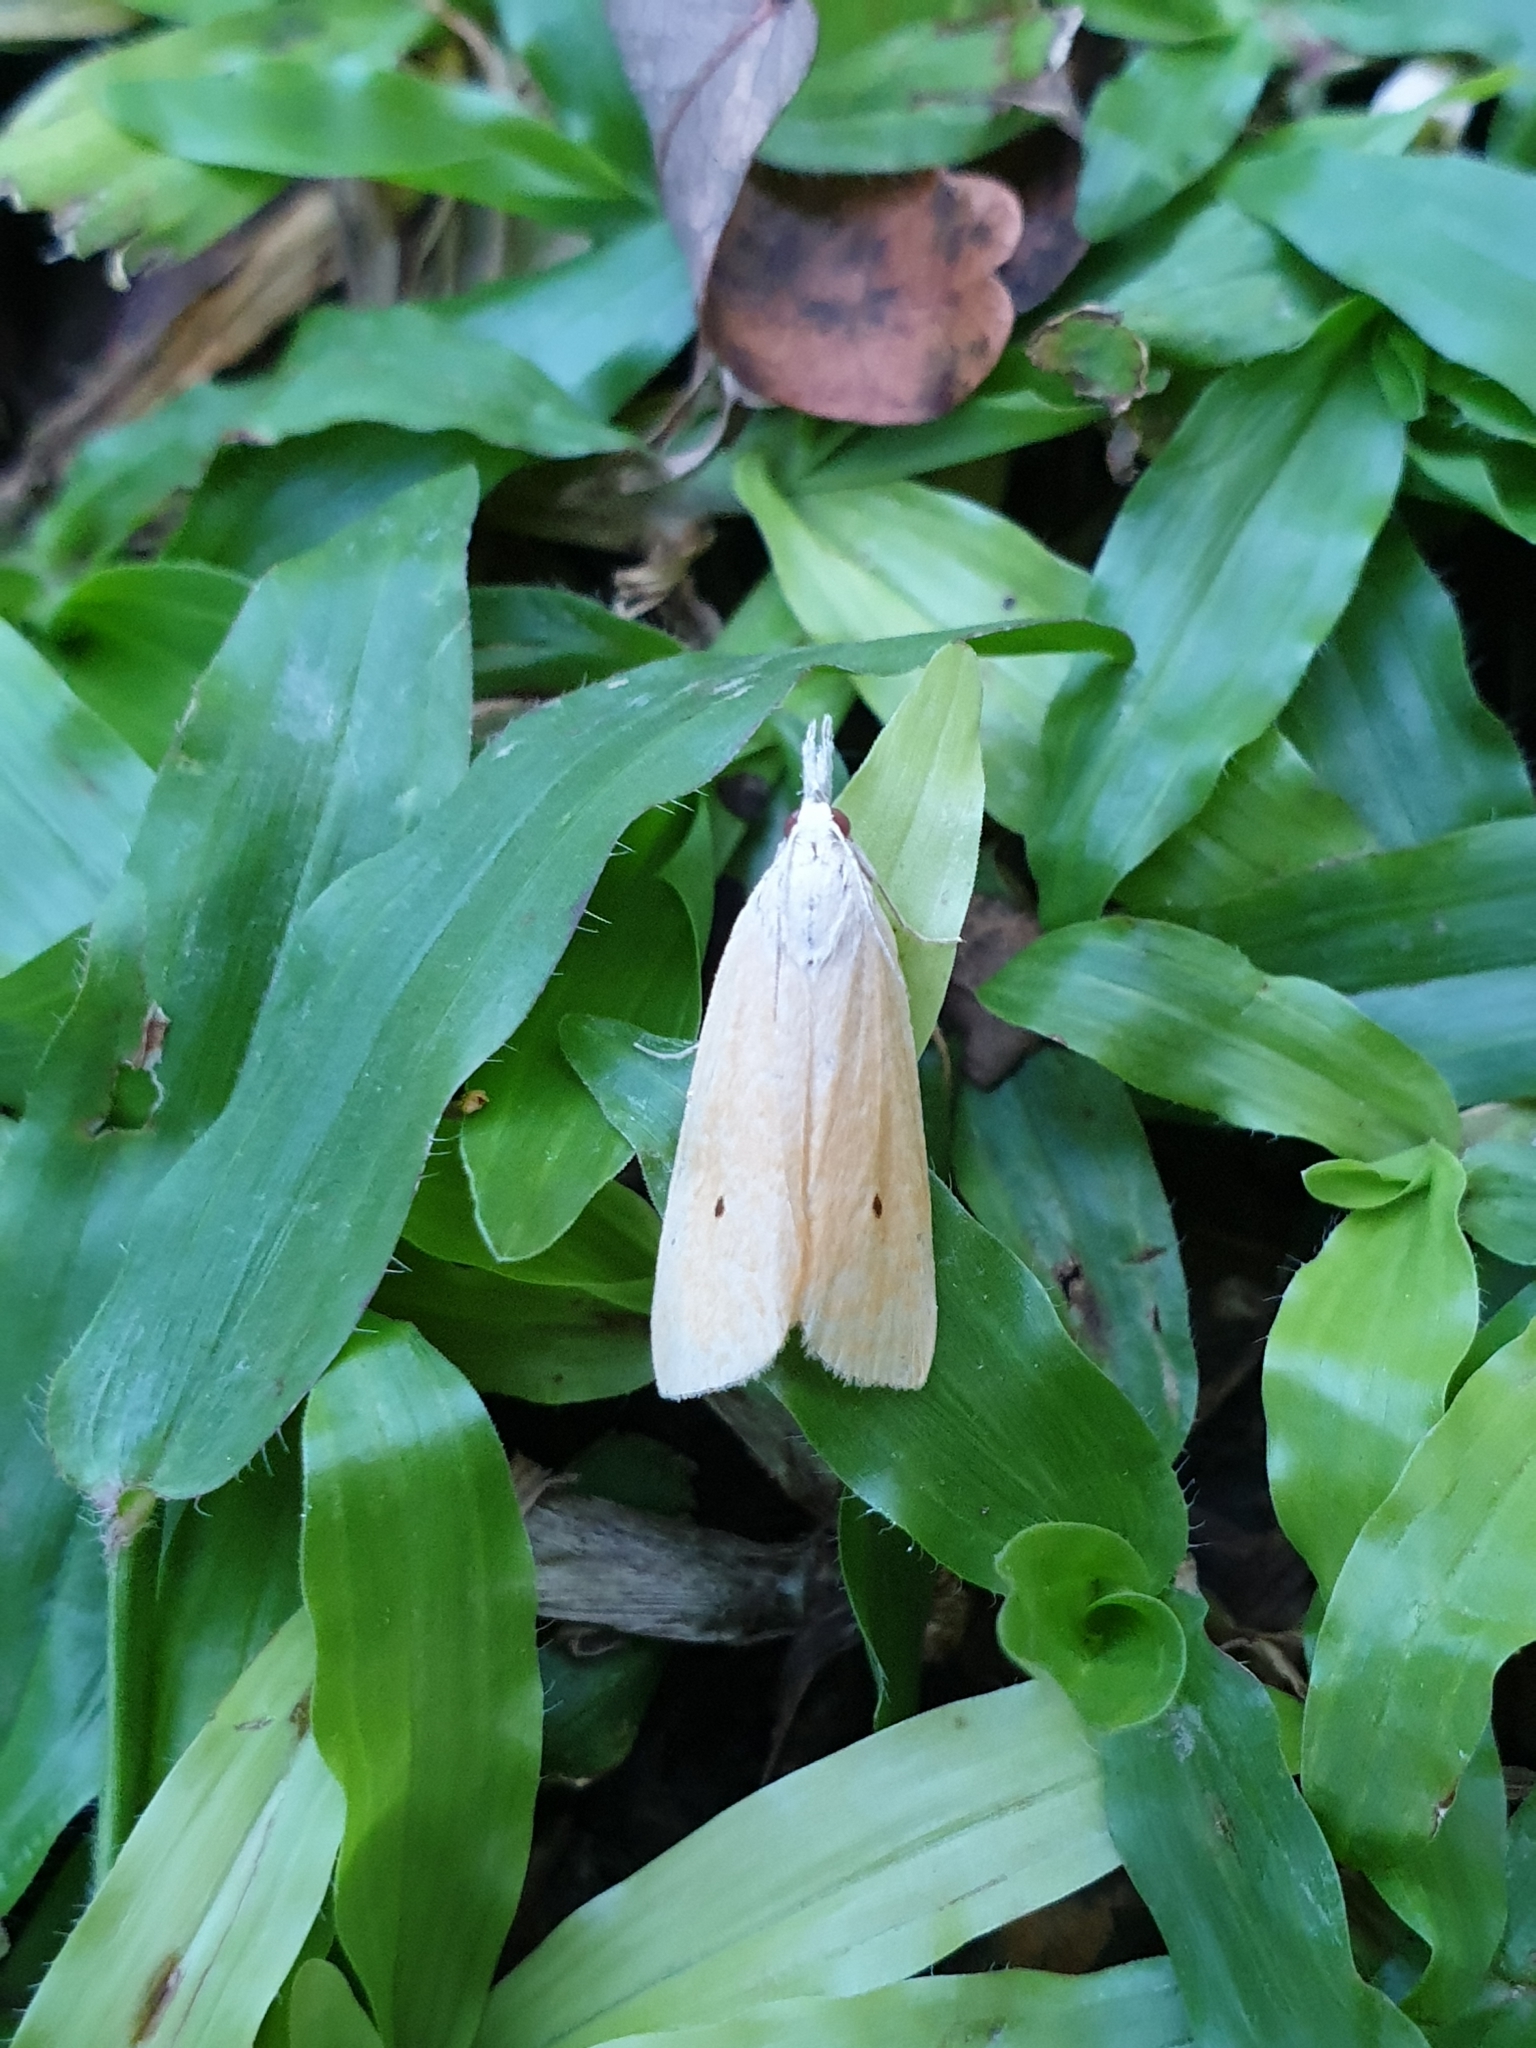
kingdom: Animalia
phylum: Arthropoda
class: Insecta
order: Lepidoptera
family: Crambidae
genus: Scirpophaga
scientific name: Scirpophaga incertulas
